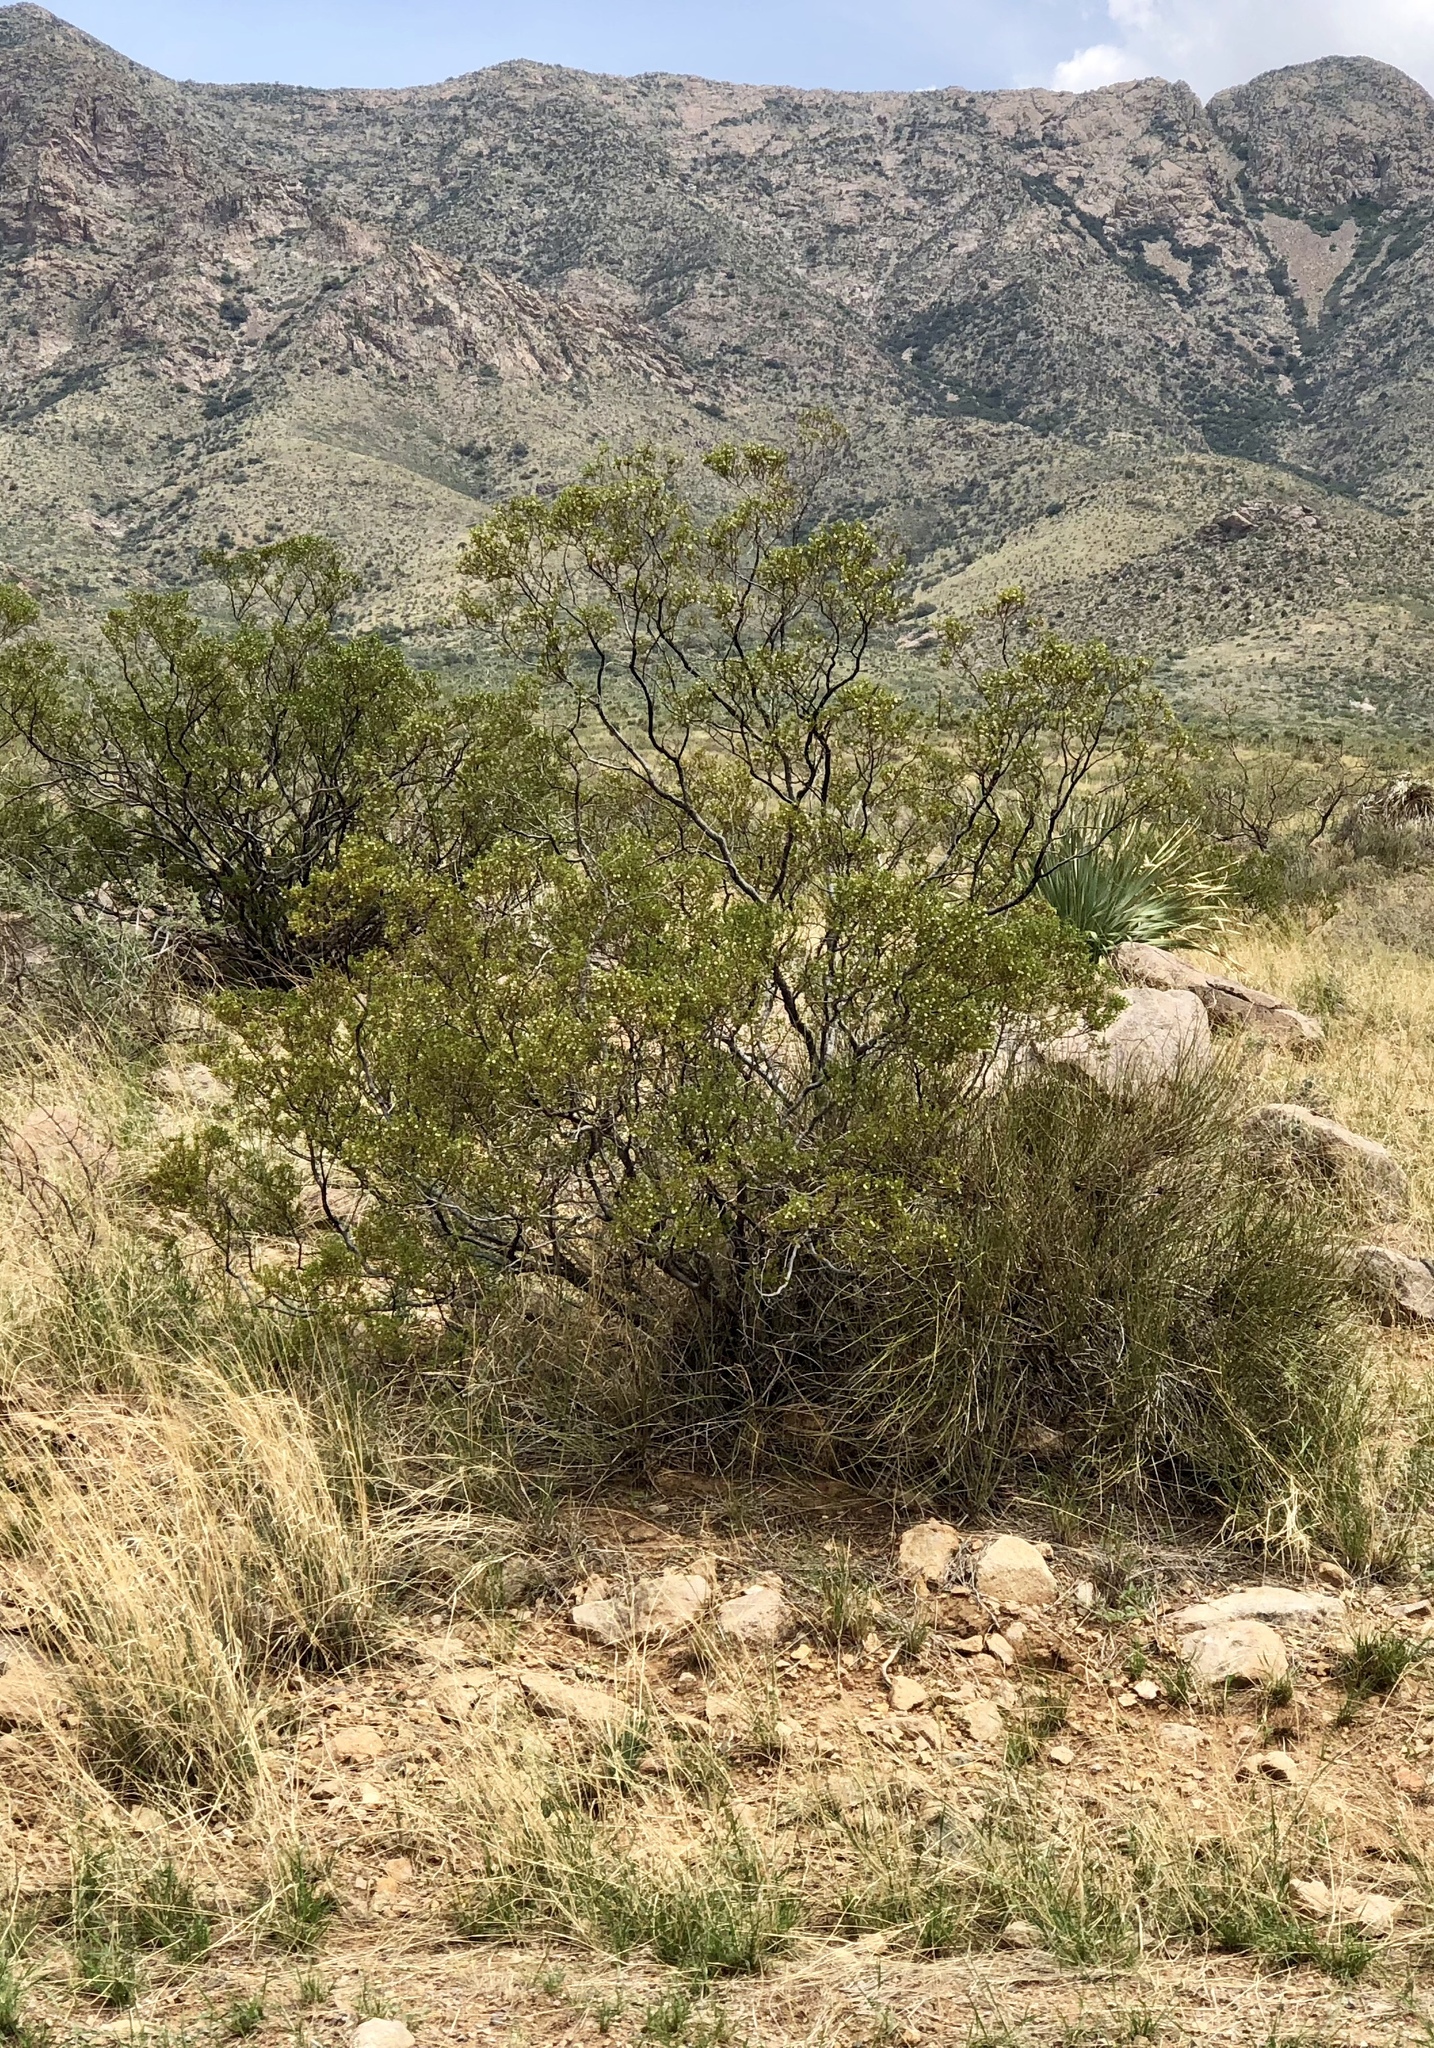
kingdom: Plantae
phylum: Tracheophyta
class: Magnoliopsida
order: Zygophyllales
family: Zygophyllaceae
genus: Larrea
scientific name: Larrea tridentata
